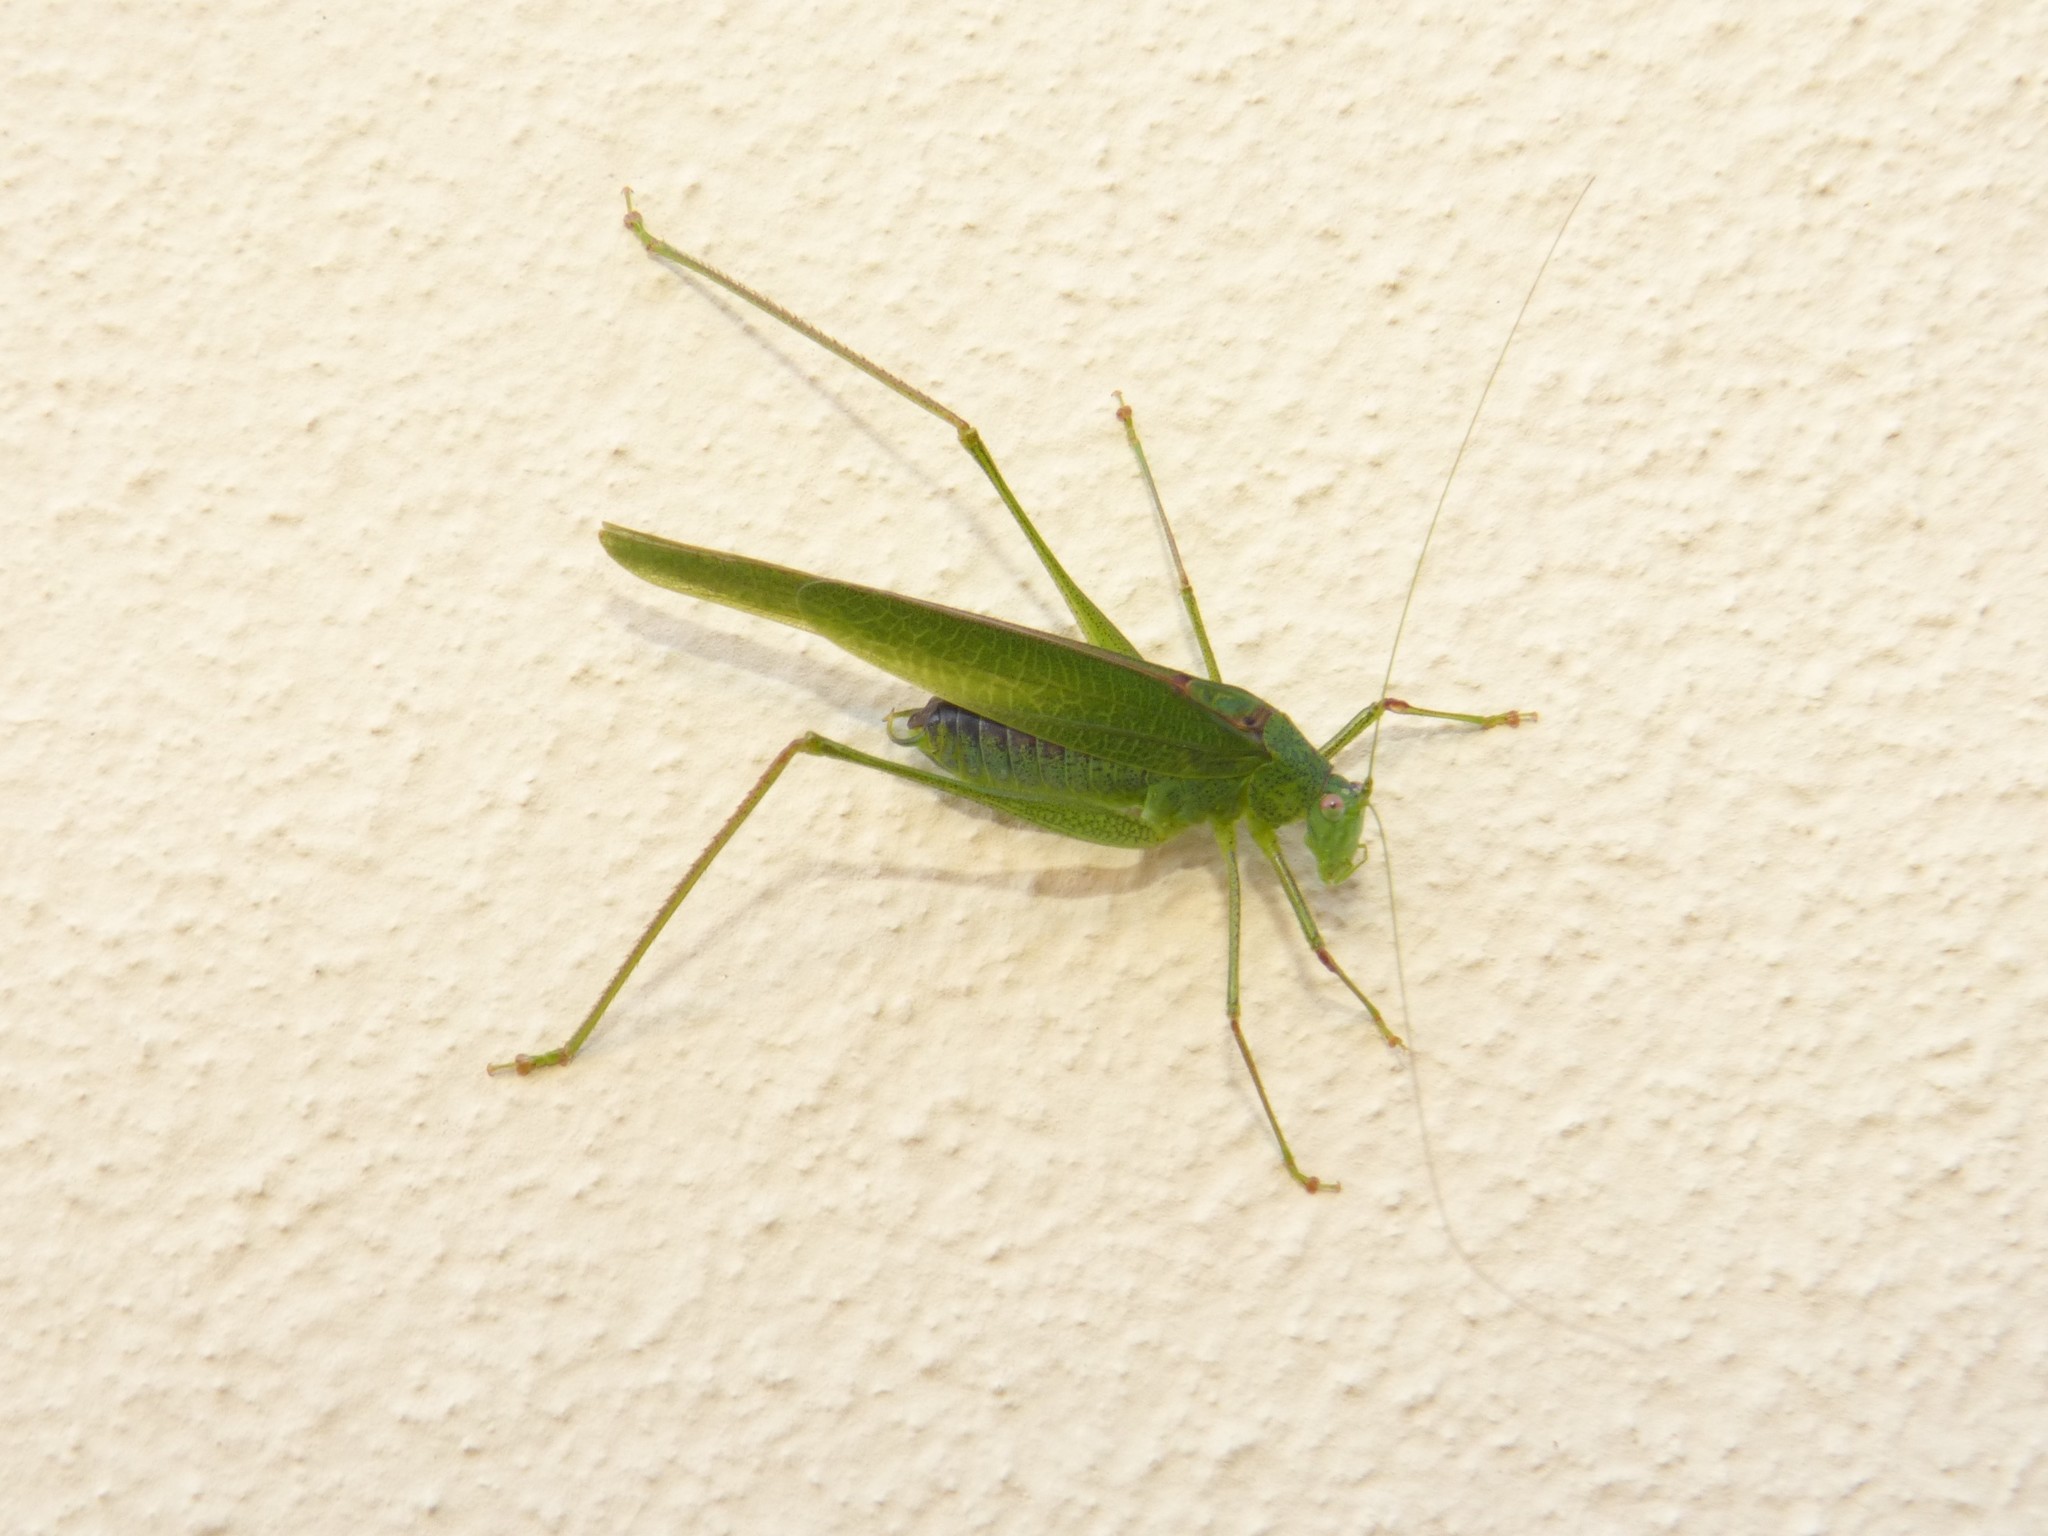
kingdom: Animalia
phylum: Arthropoda
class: Insecta
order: Orthoptera
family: Tettigoniidae
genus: Phaneroptera
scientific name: Phaneroptera nana
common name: Southern sickle bush-cricket
